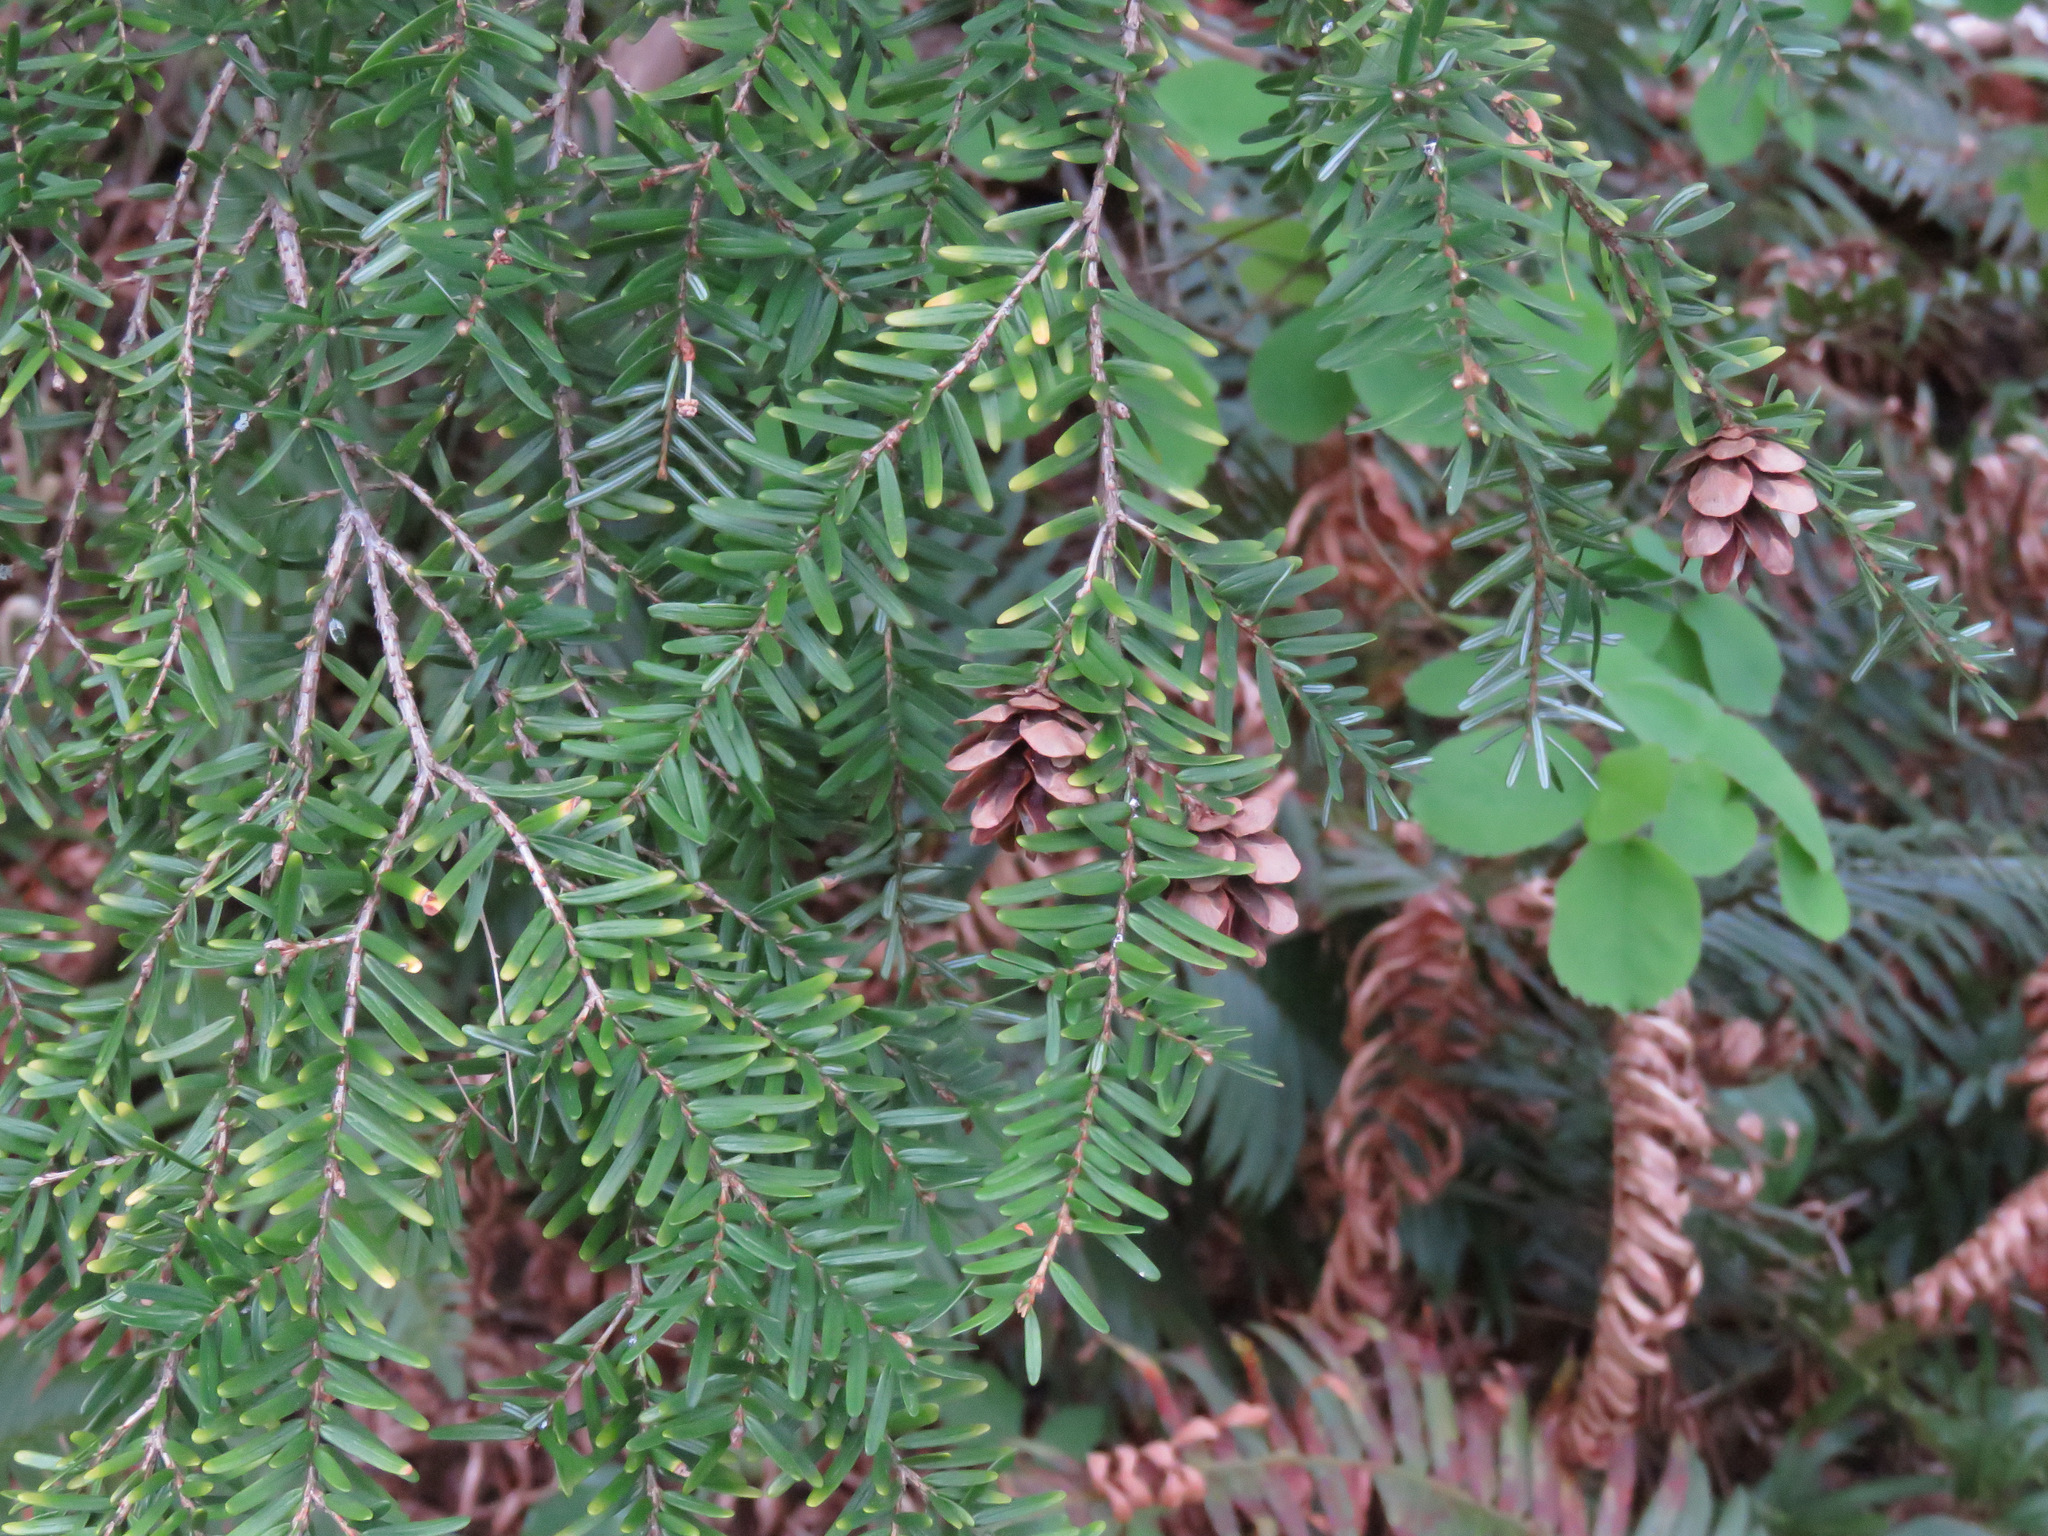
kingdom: Plantae
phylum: Tracheophyta
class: Pinopsida
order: Pinales
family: Pinaceae
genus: Tsuga
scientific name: Tsuga heterophylla
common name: Western hemlock
